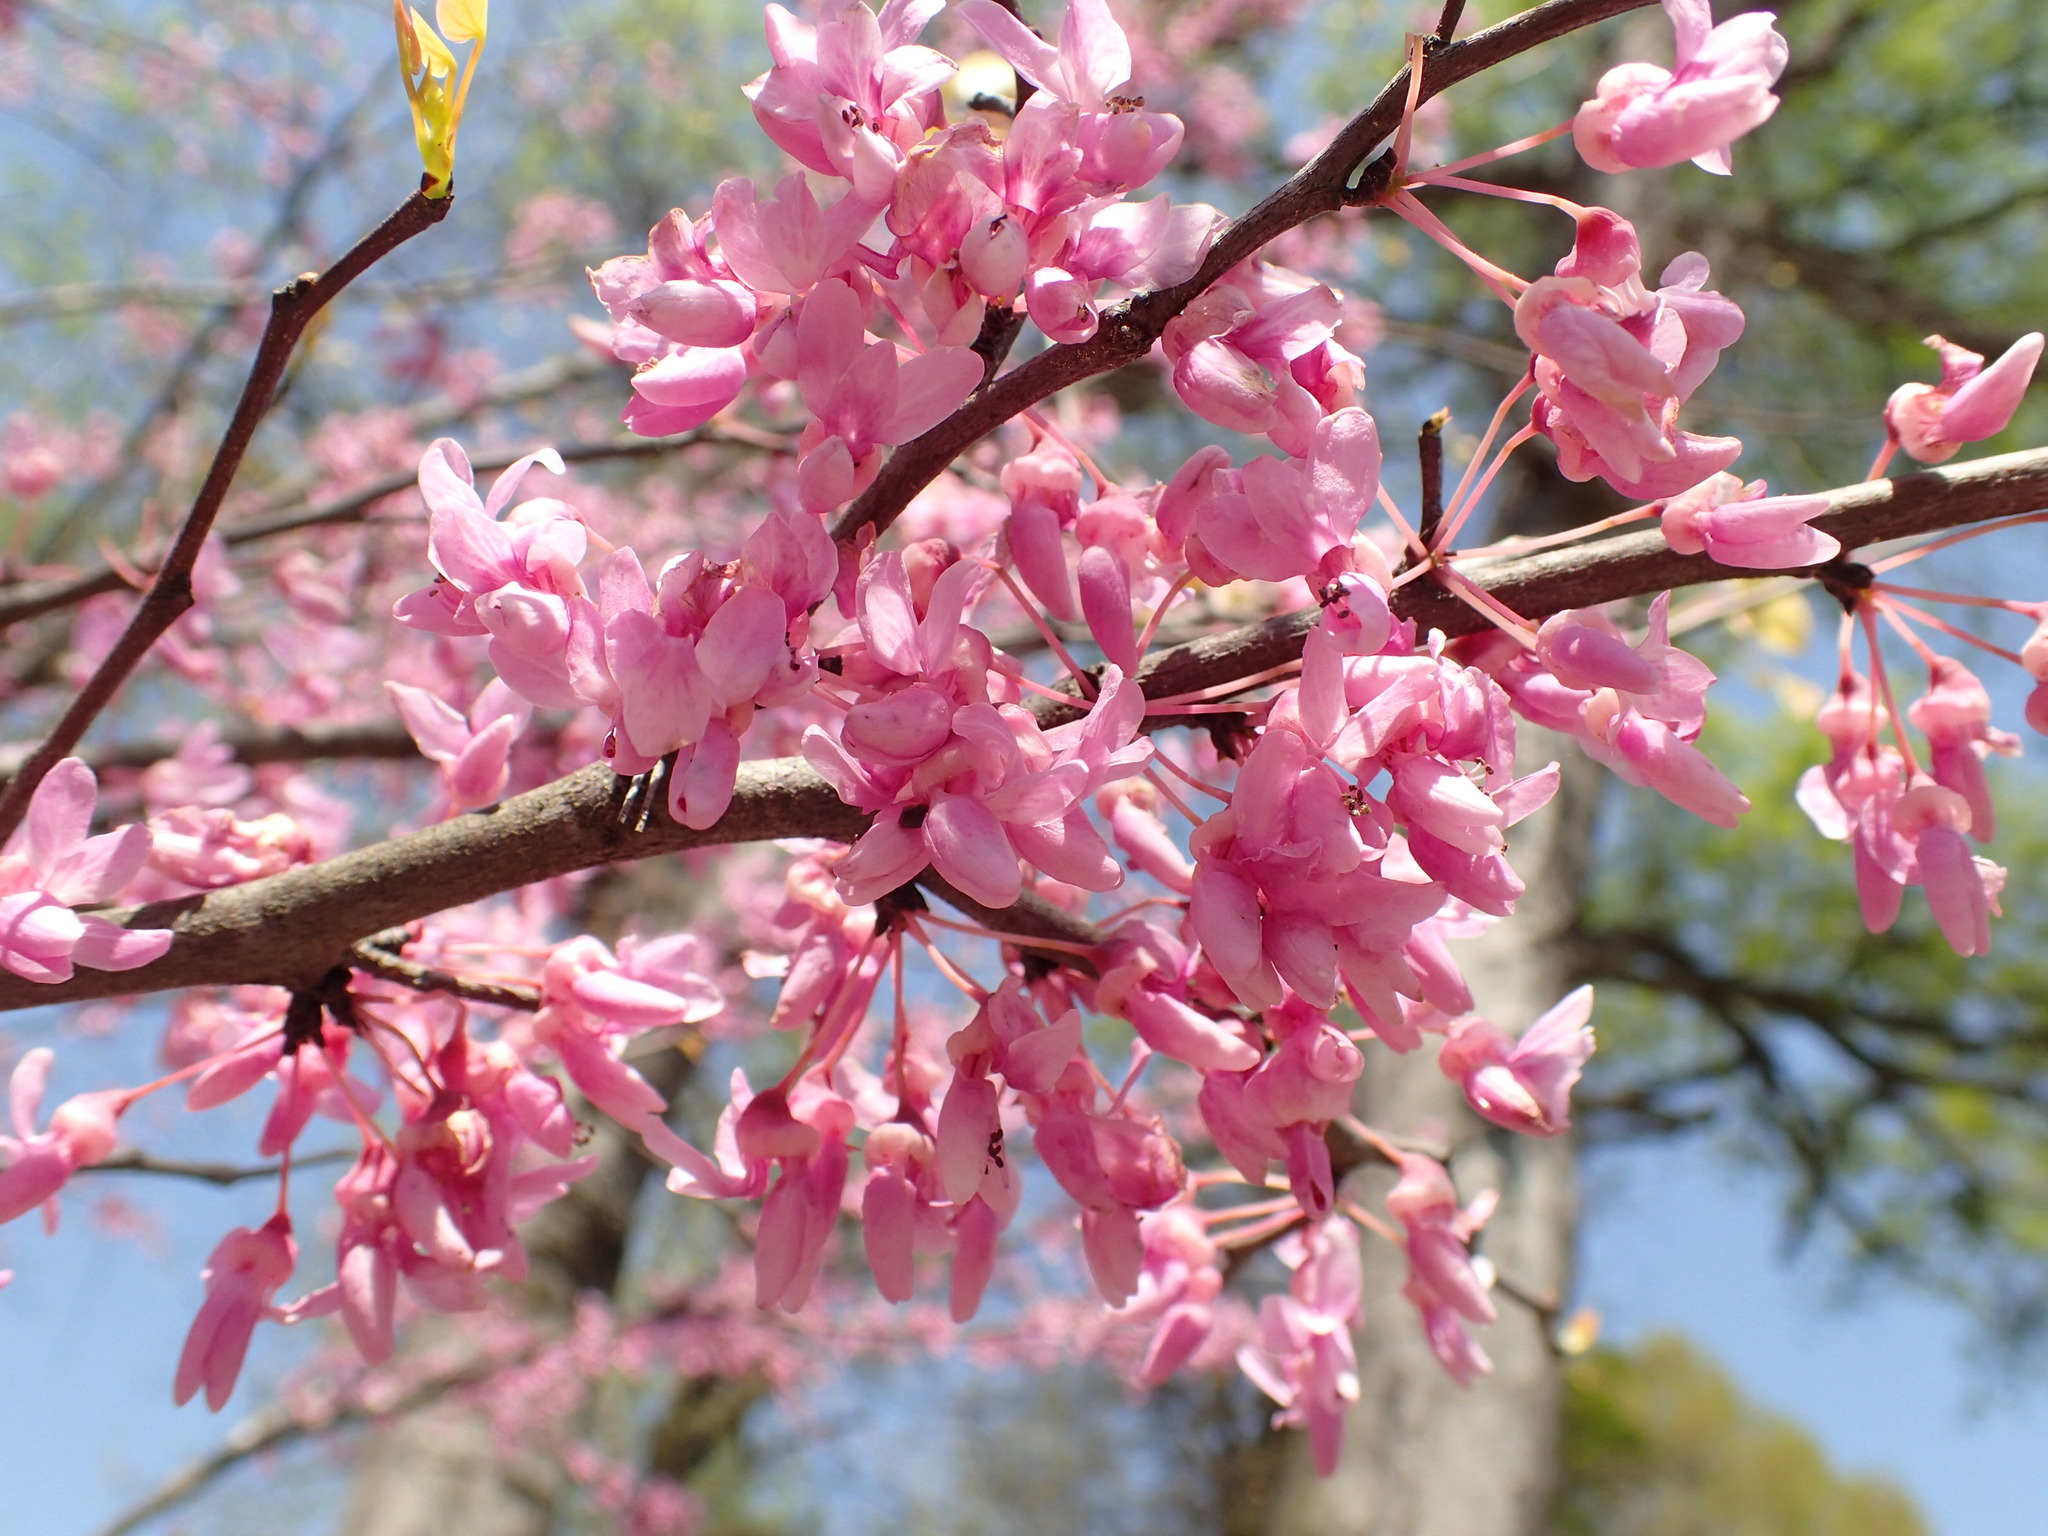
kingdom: Plantae
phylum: Tracheophyta
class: Magnoliopsida
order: Fabales
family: Fabaceae
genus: Cercis
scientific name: Cercis canadensis
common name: Eastern redbud
